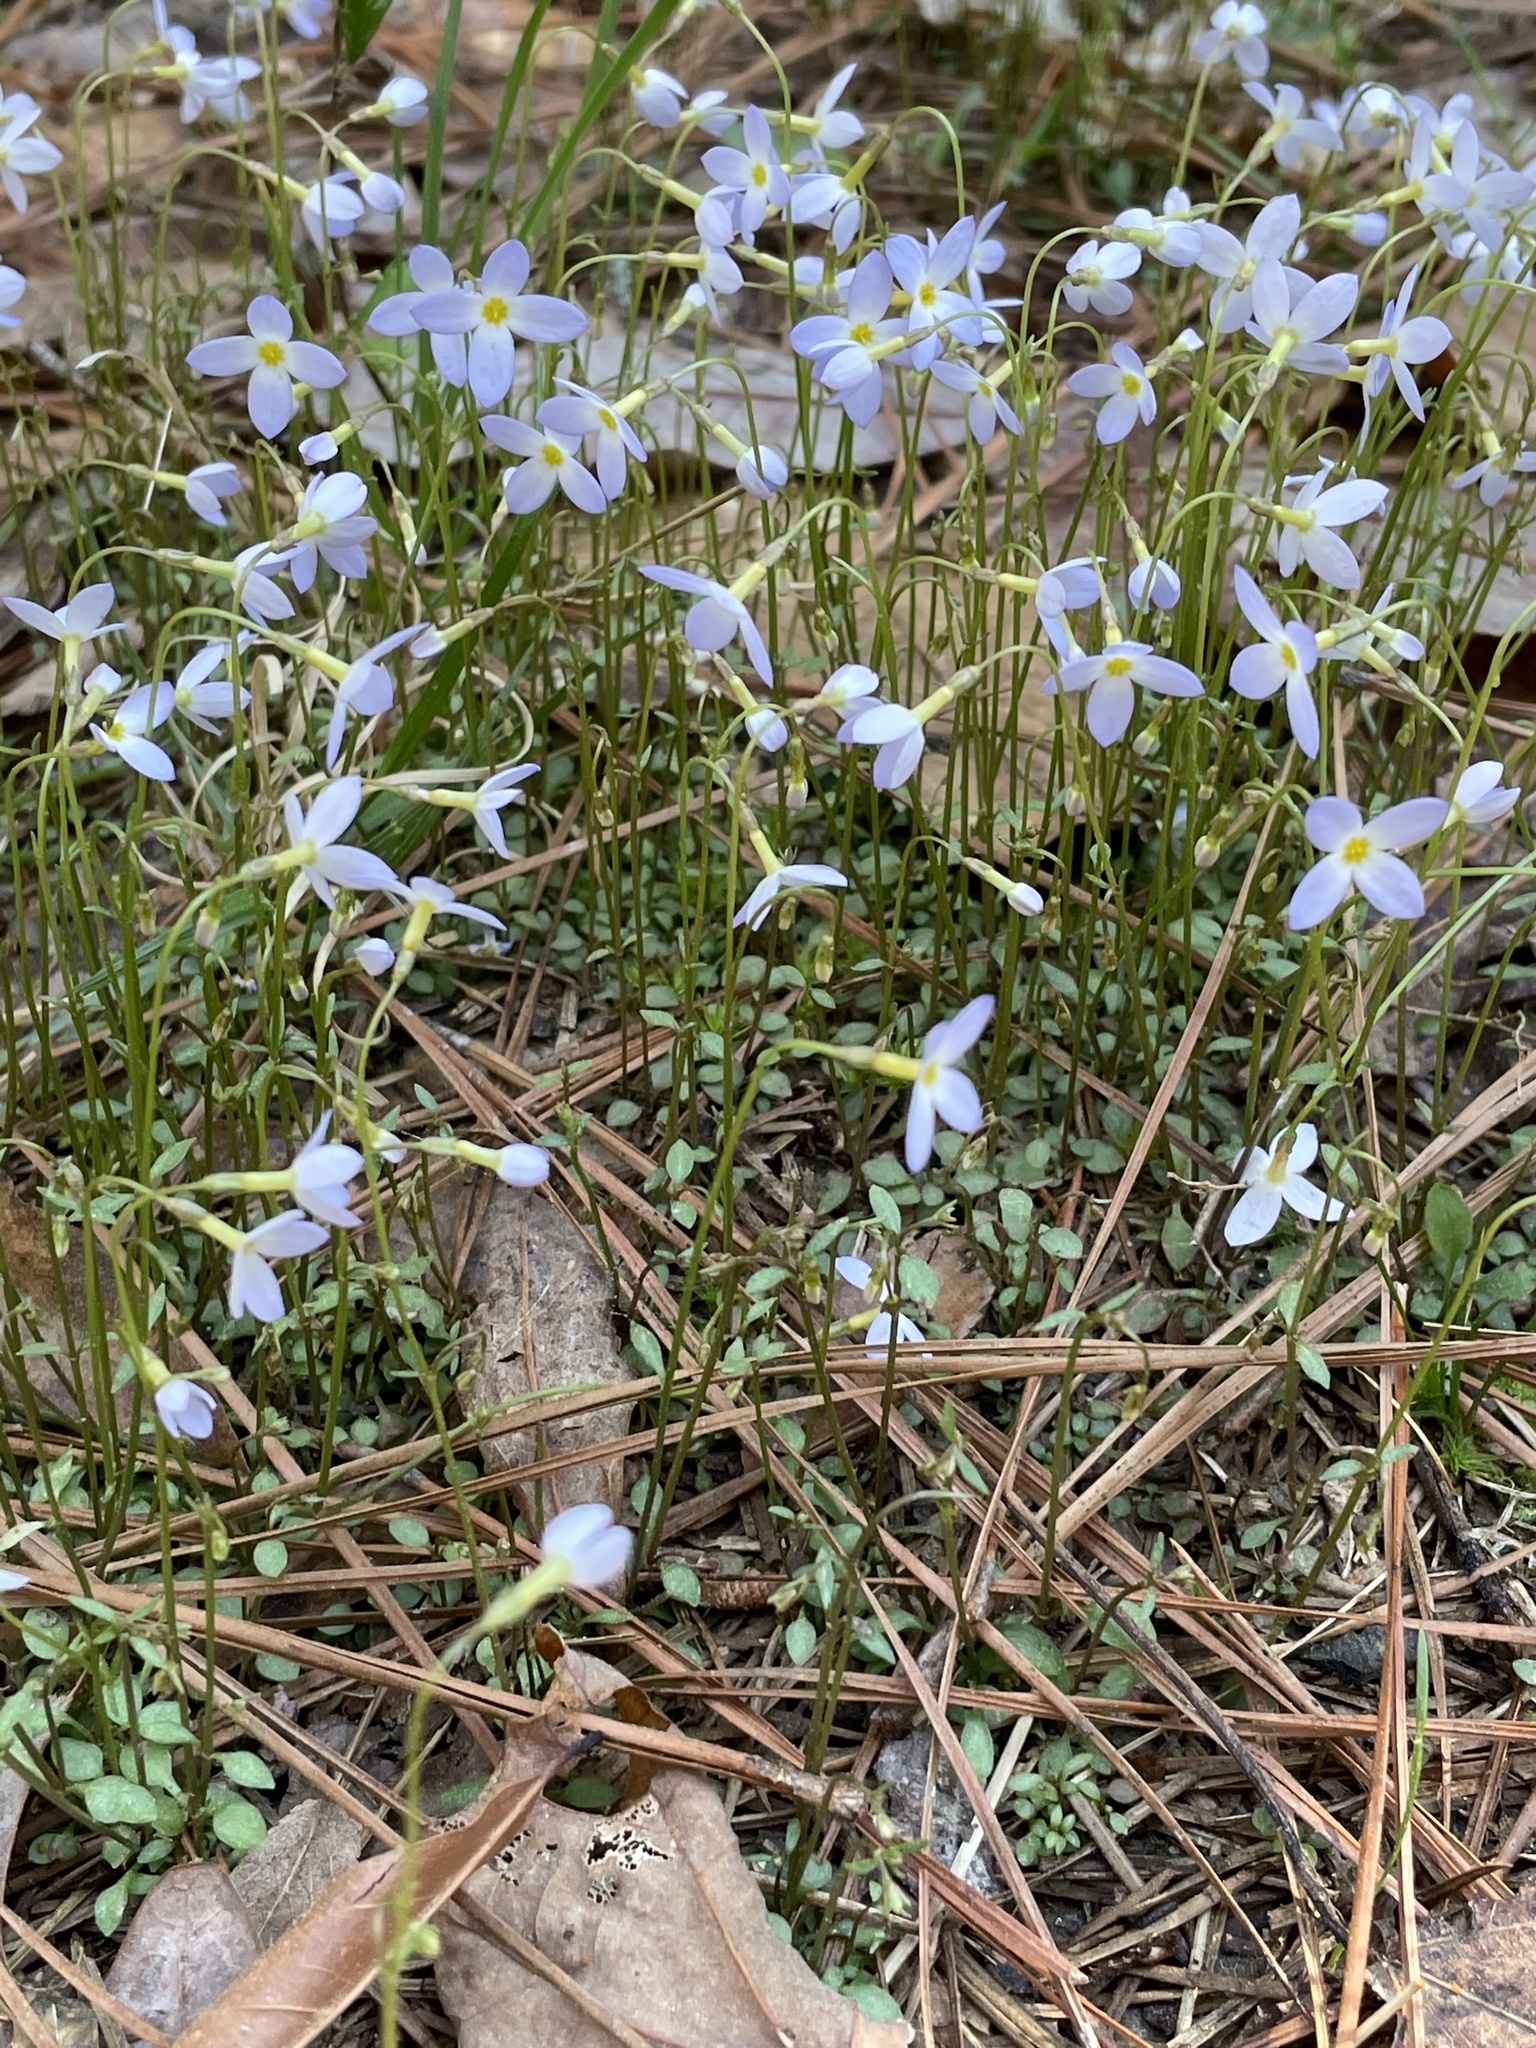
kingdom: Plantae
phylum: Tracheophyta
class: Magnoliopsida
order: Gentianales
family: Rubiaceae
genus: Houstonia
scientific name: Houstonia caerulea
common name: Bluets
